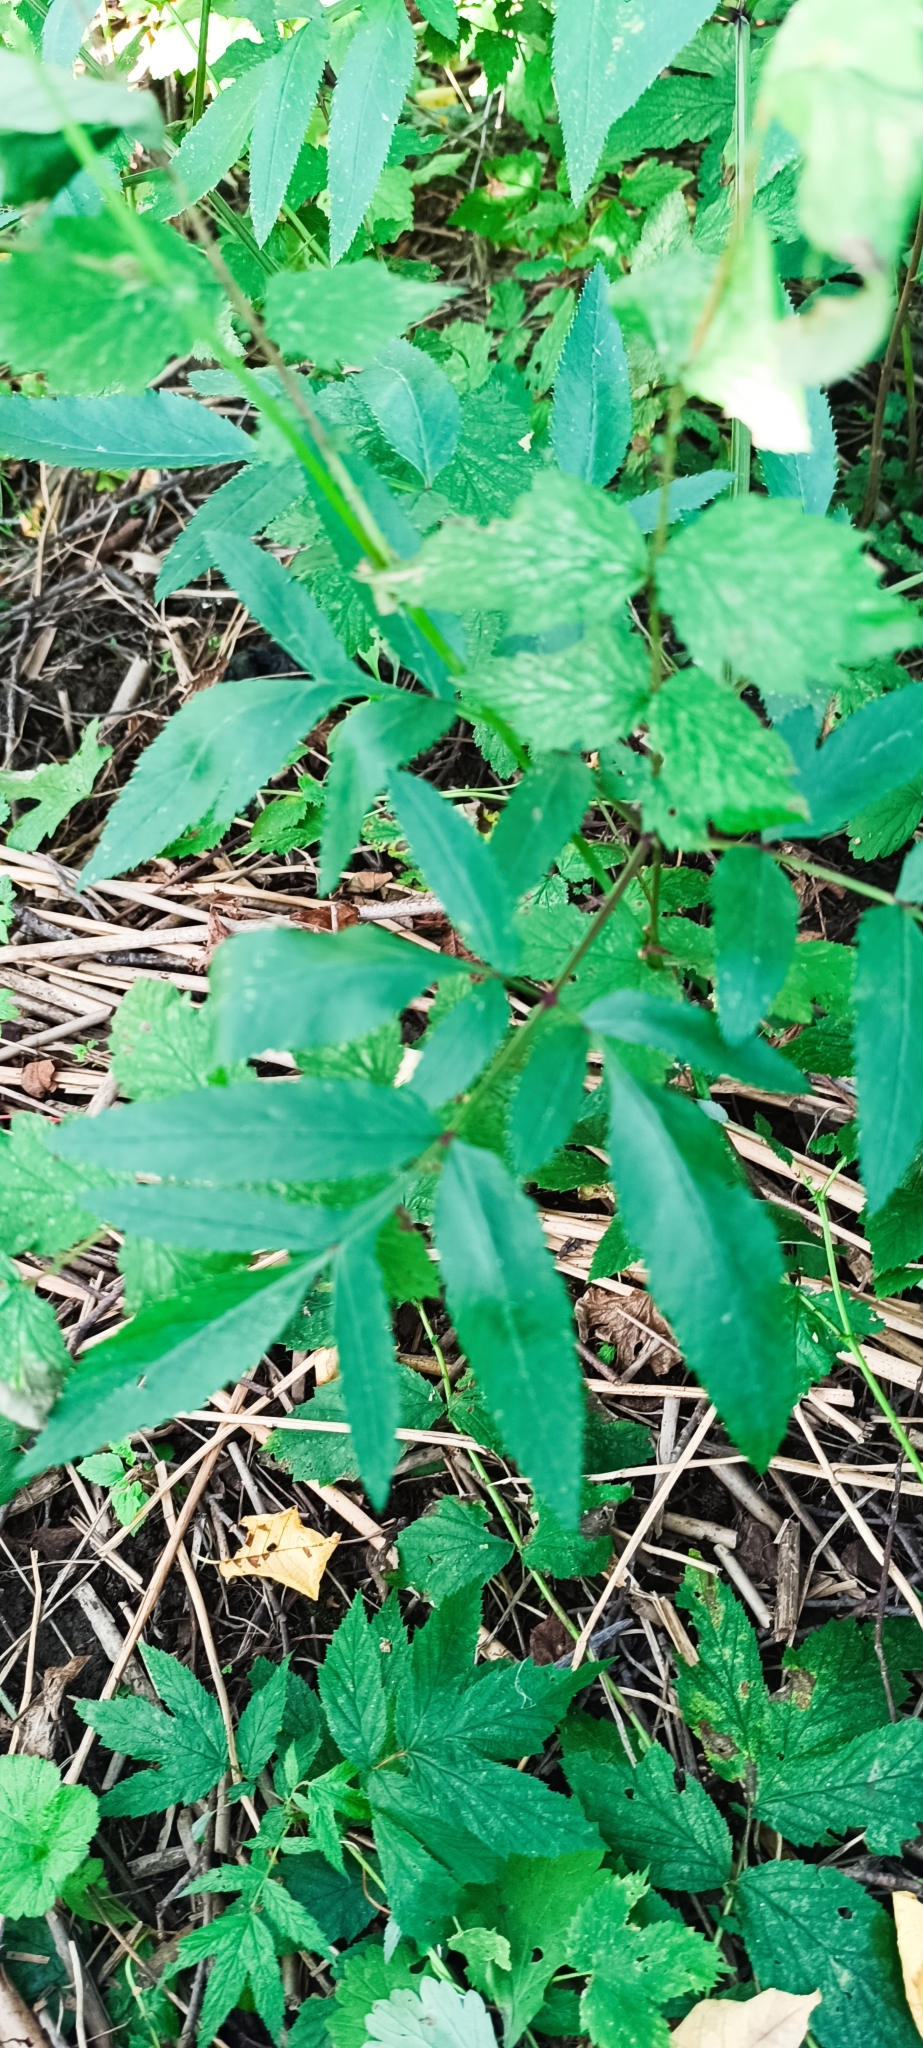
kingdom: Plantae
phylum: Tracheophyta
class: Magnoliopsida
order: Apiales
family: Apiaceae
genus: Angelica
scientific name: Angelica sylvestris
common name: Wild angelica
